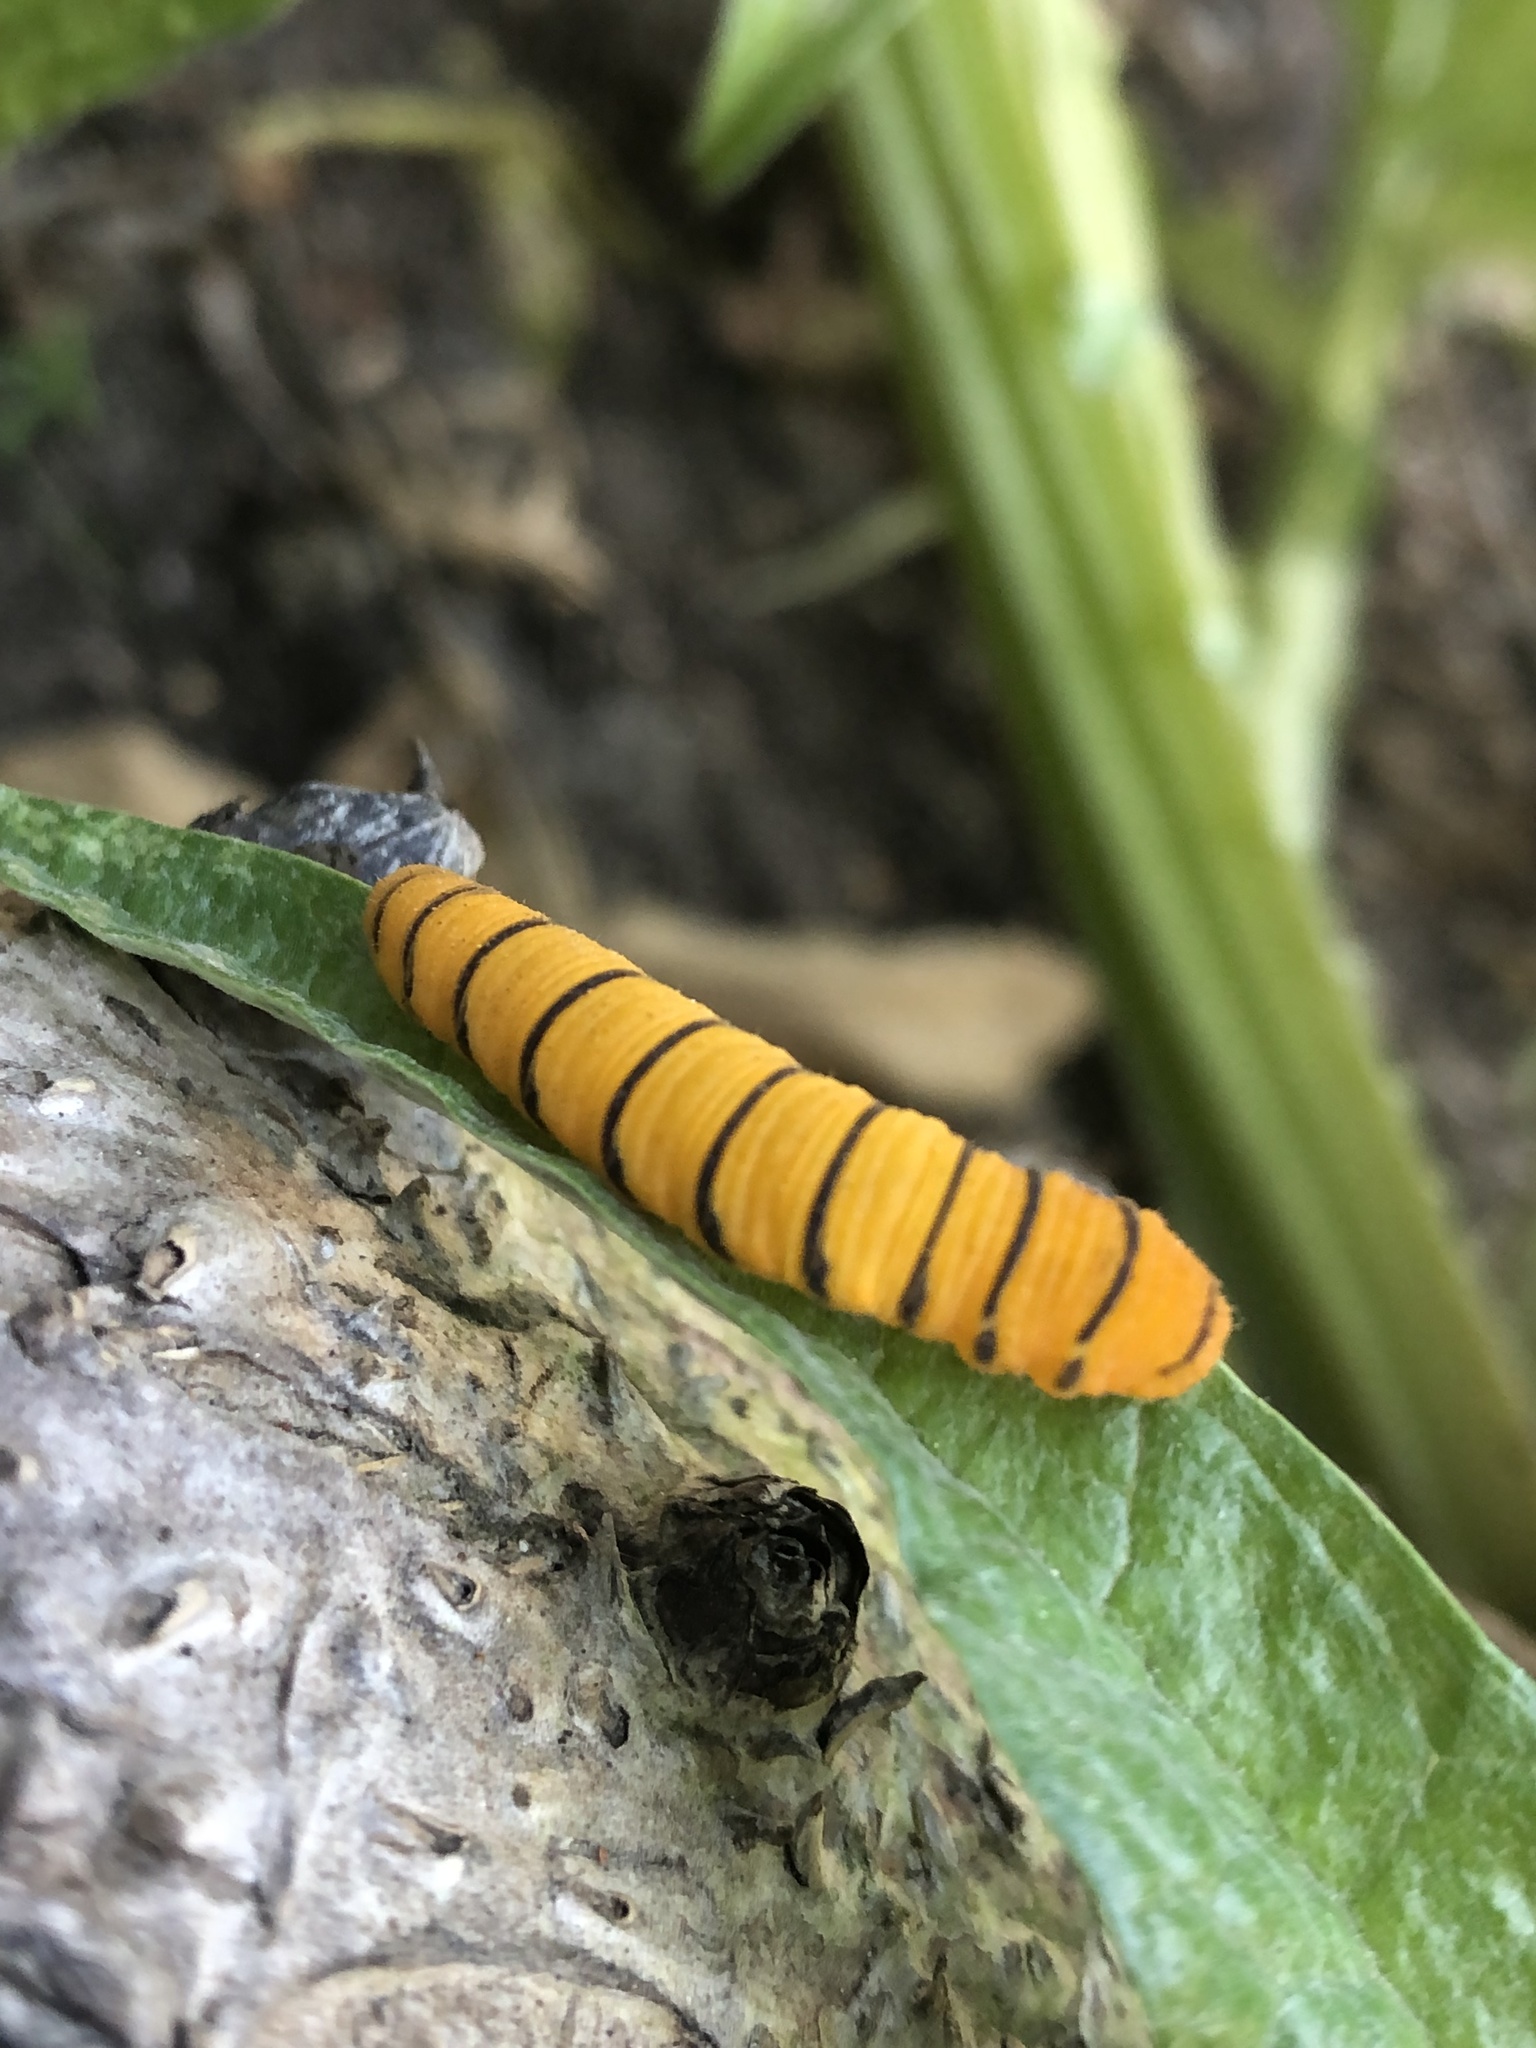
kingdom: Animalia
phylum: Arthropoda
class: Insecta
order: Lepidoptera
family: Pieridae
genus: Phoebis
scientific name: Phoebis sennae
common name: Cloudless sulphur
